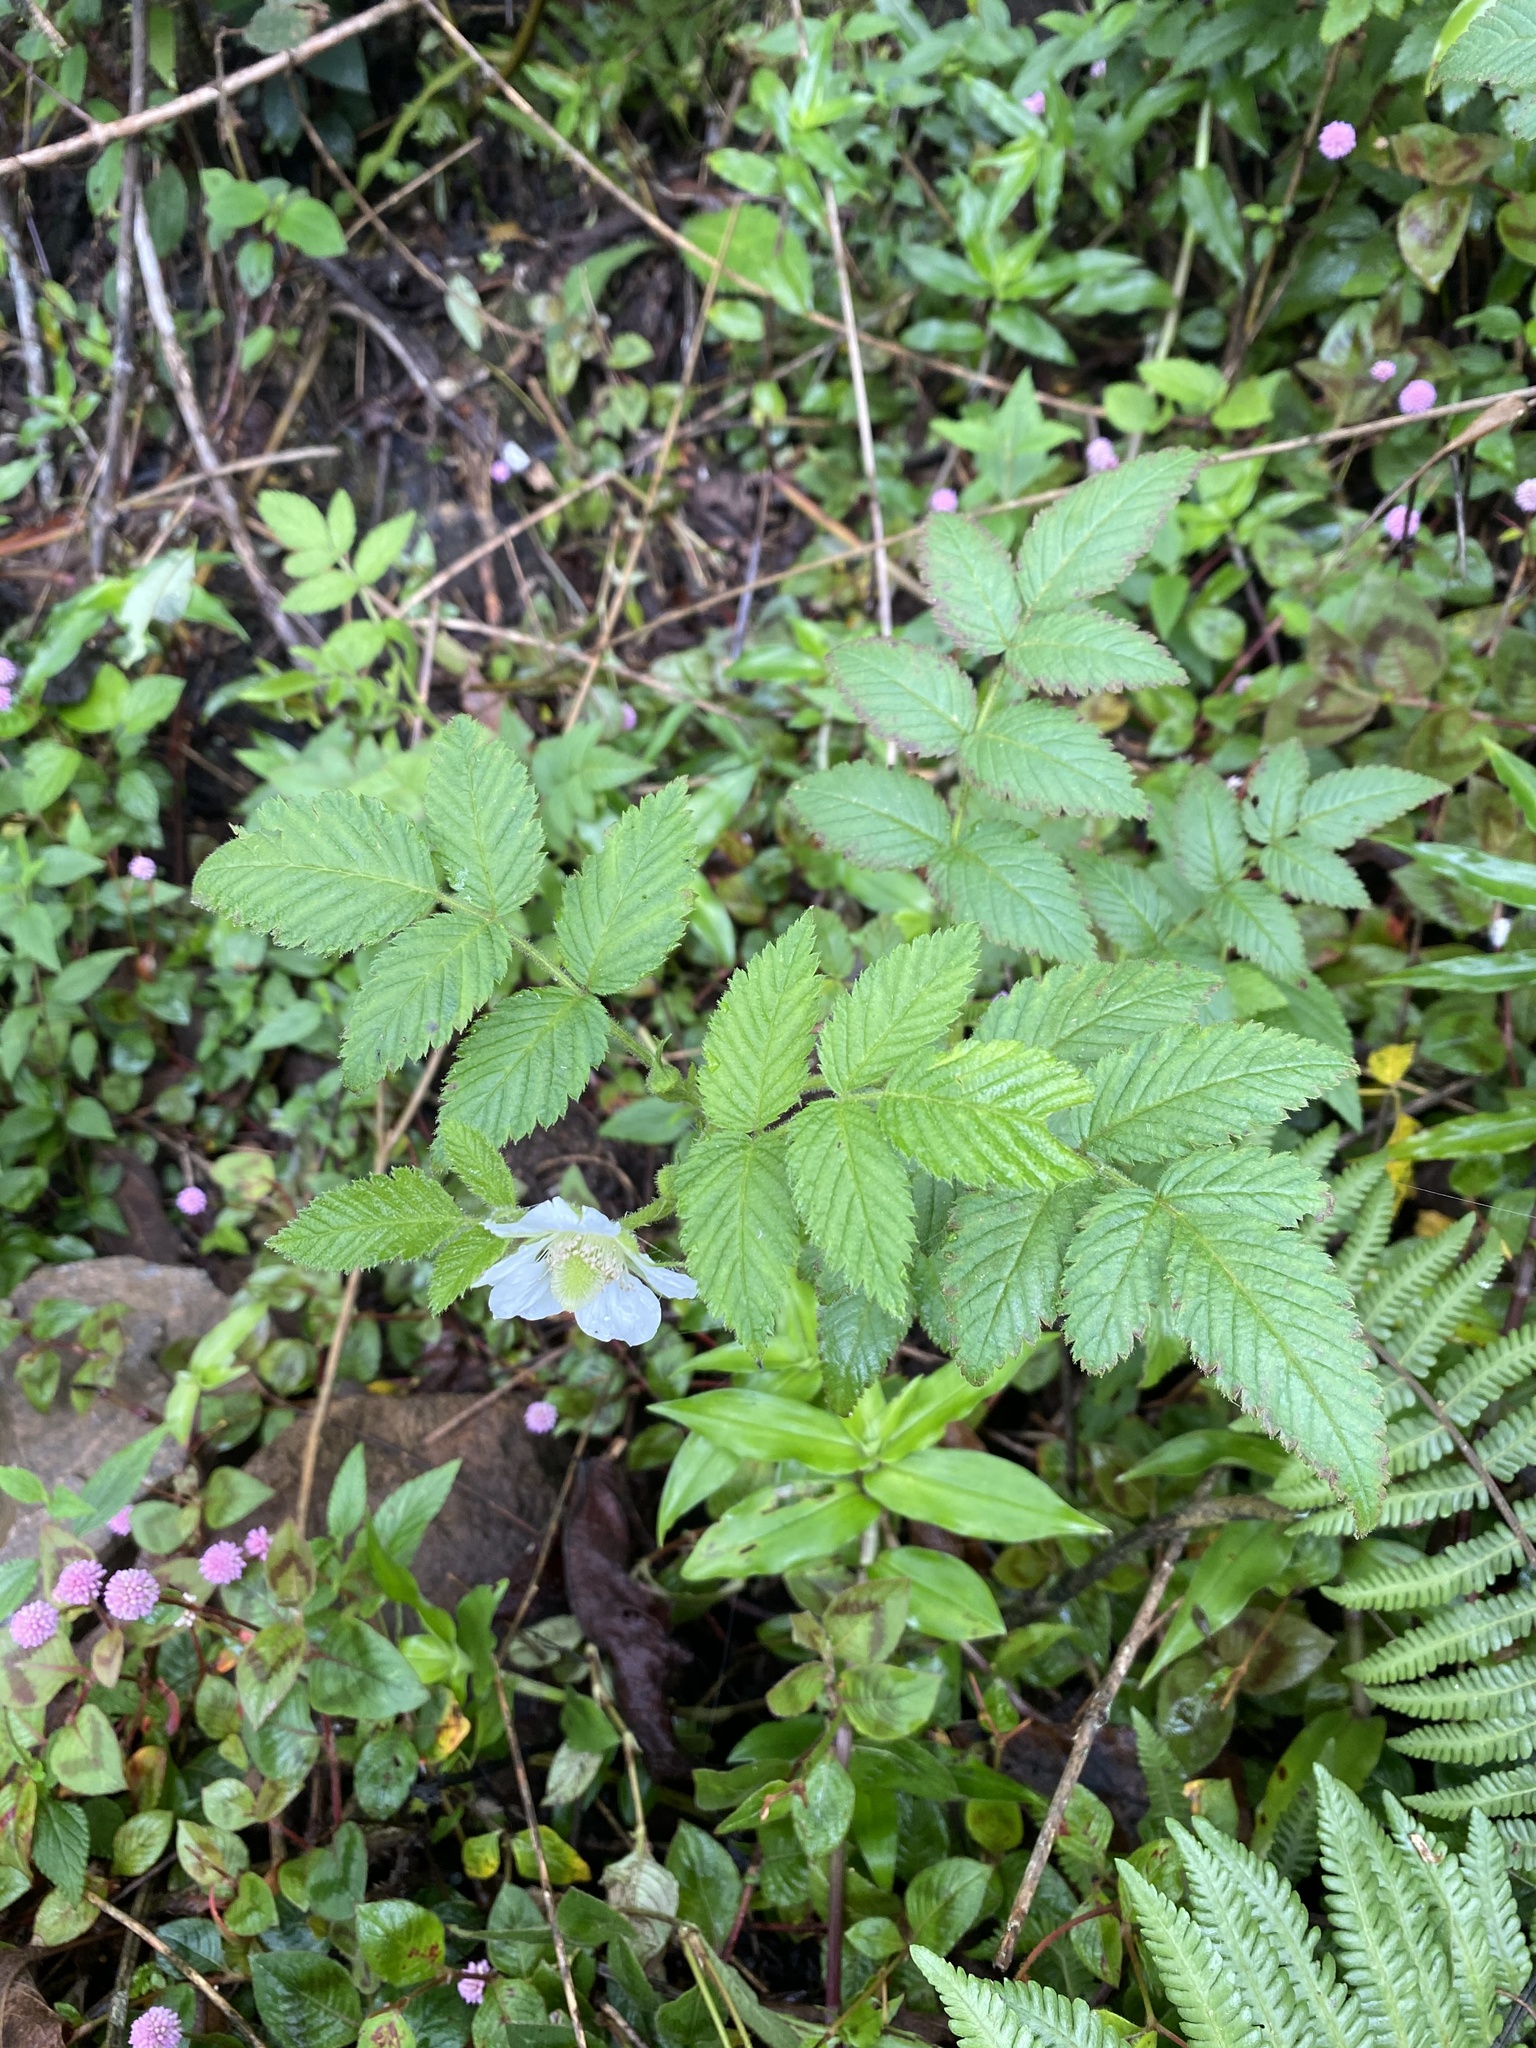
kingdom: Plantae
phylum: Tracheophyta
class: Magnoliopsida
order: Rosales
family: Rosaceae
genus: Rubus
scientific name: Rubus rosifolius
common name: Roseleaf raspberry
